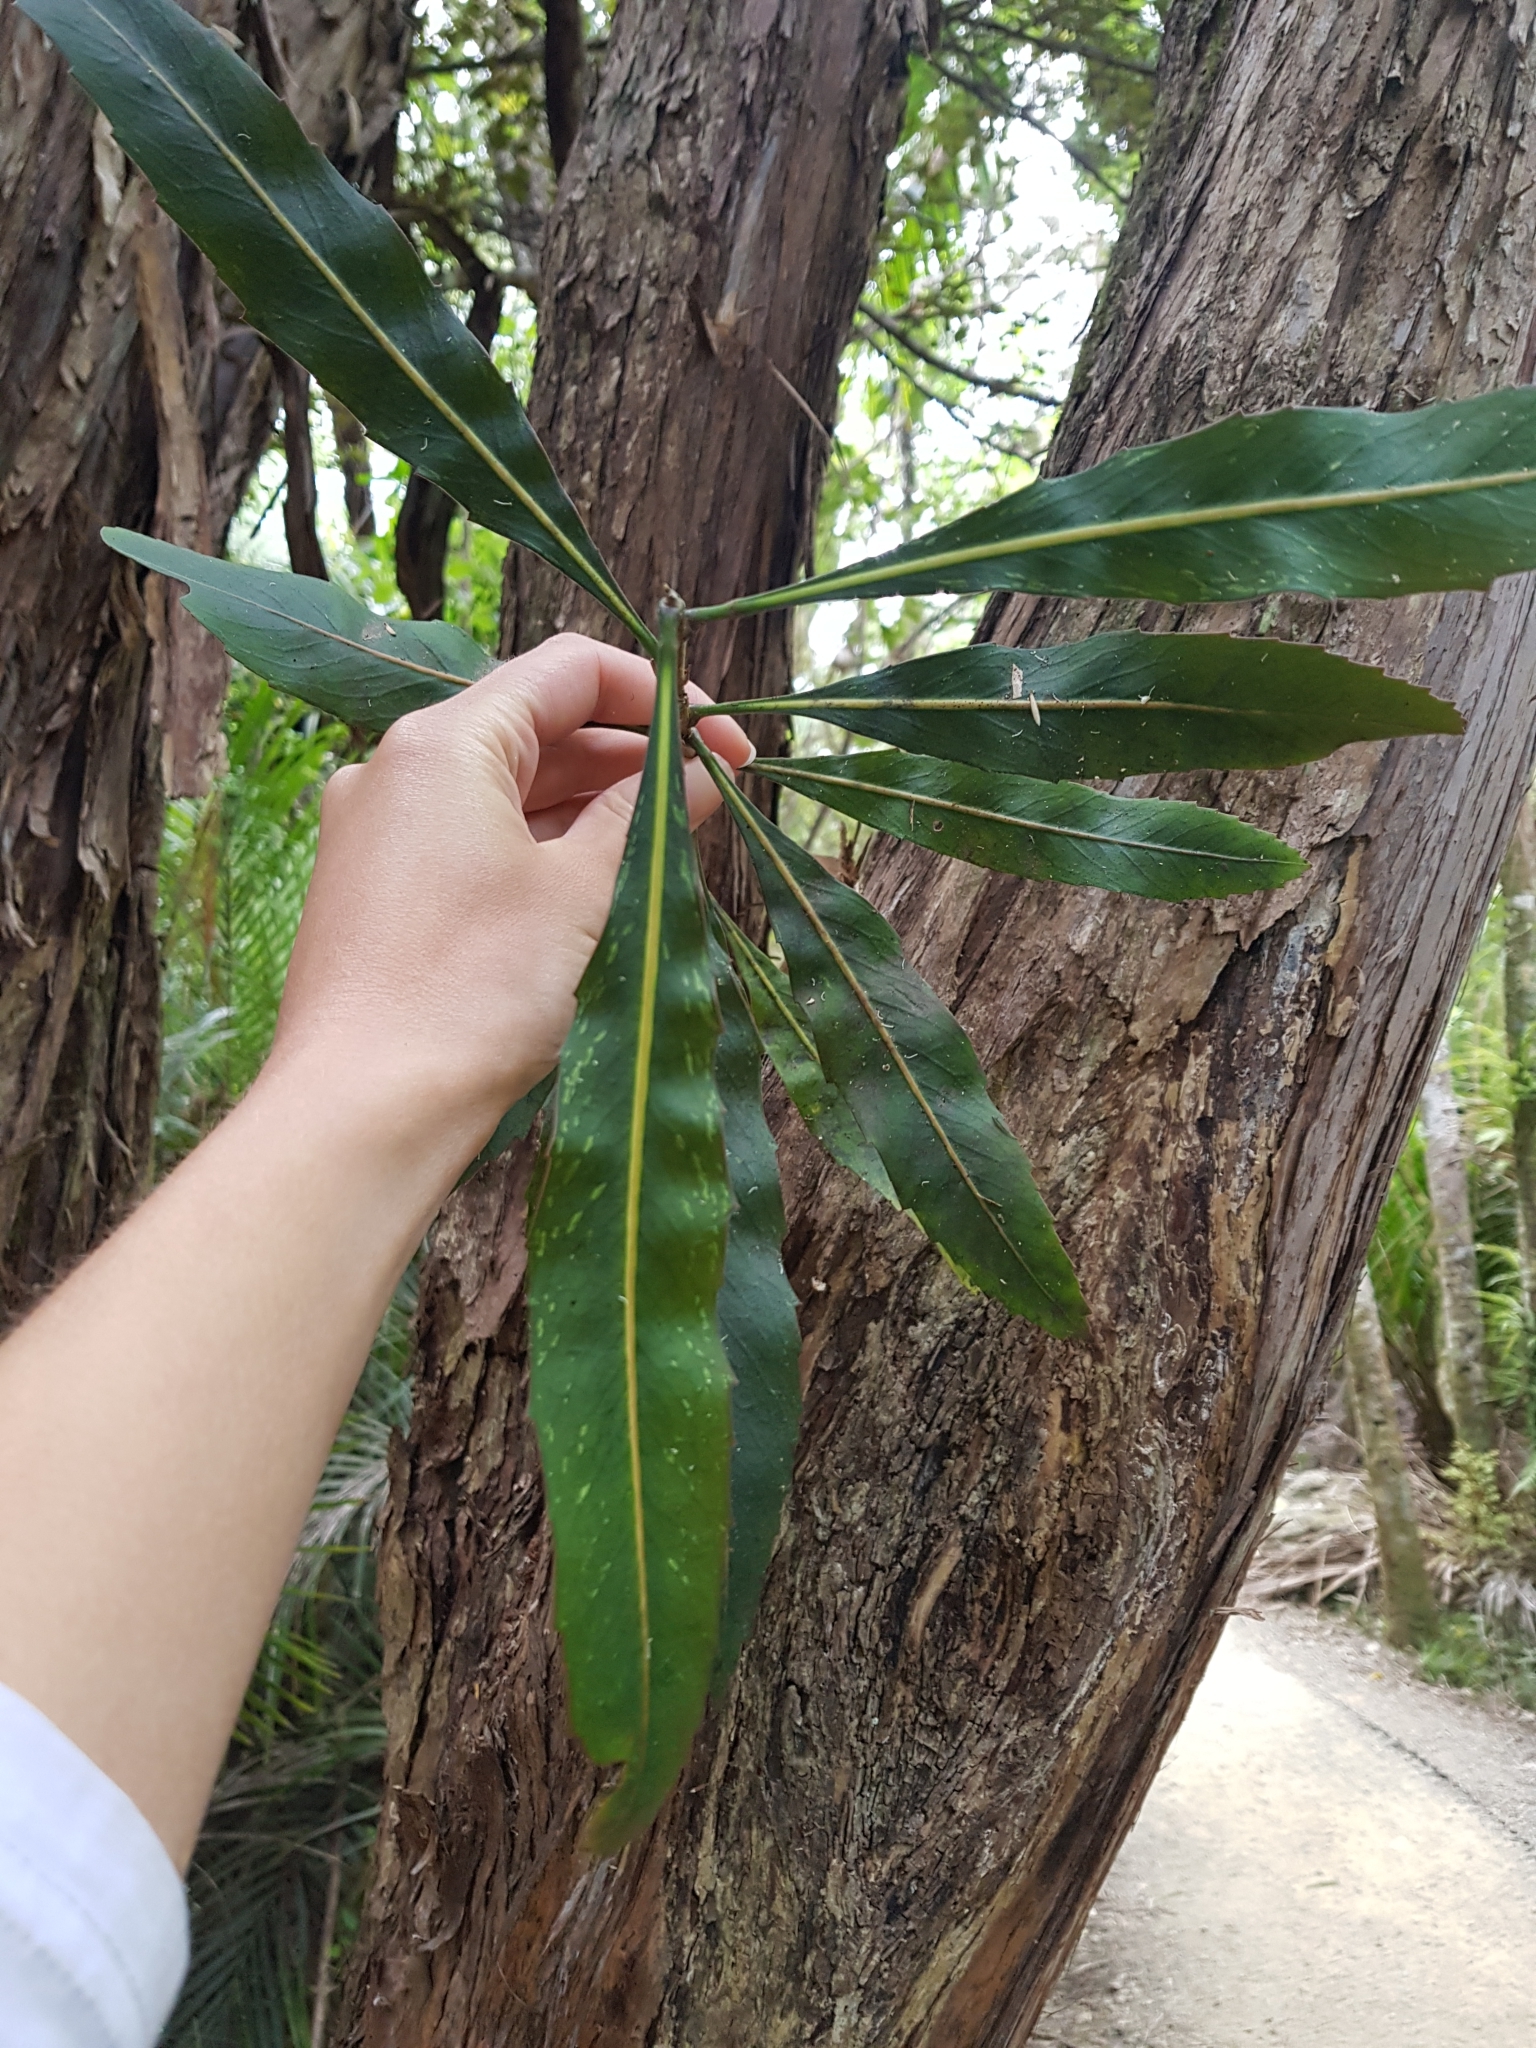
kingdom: Plantae
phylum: Tracheophyta
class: Magnoliopsida
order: Apiales
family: Araliaceae
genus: Pseudopanax
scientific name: Pseudopanax
